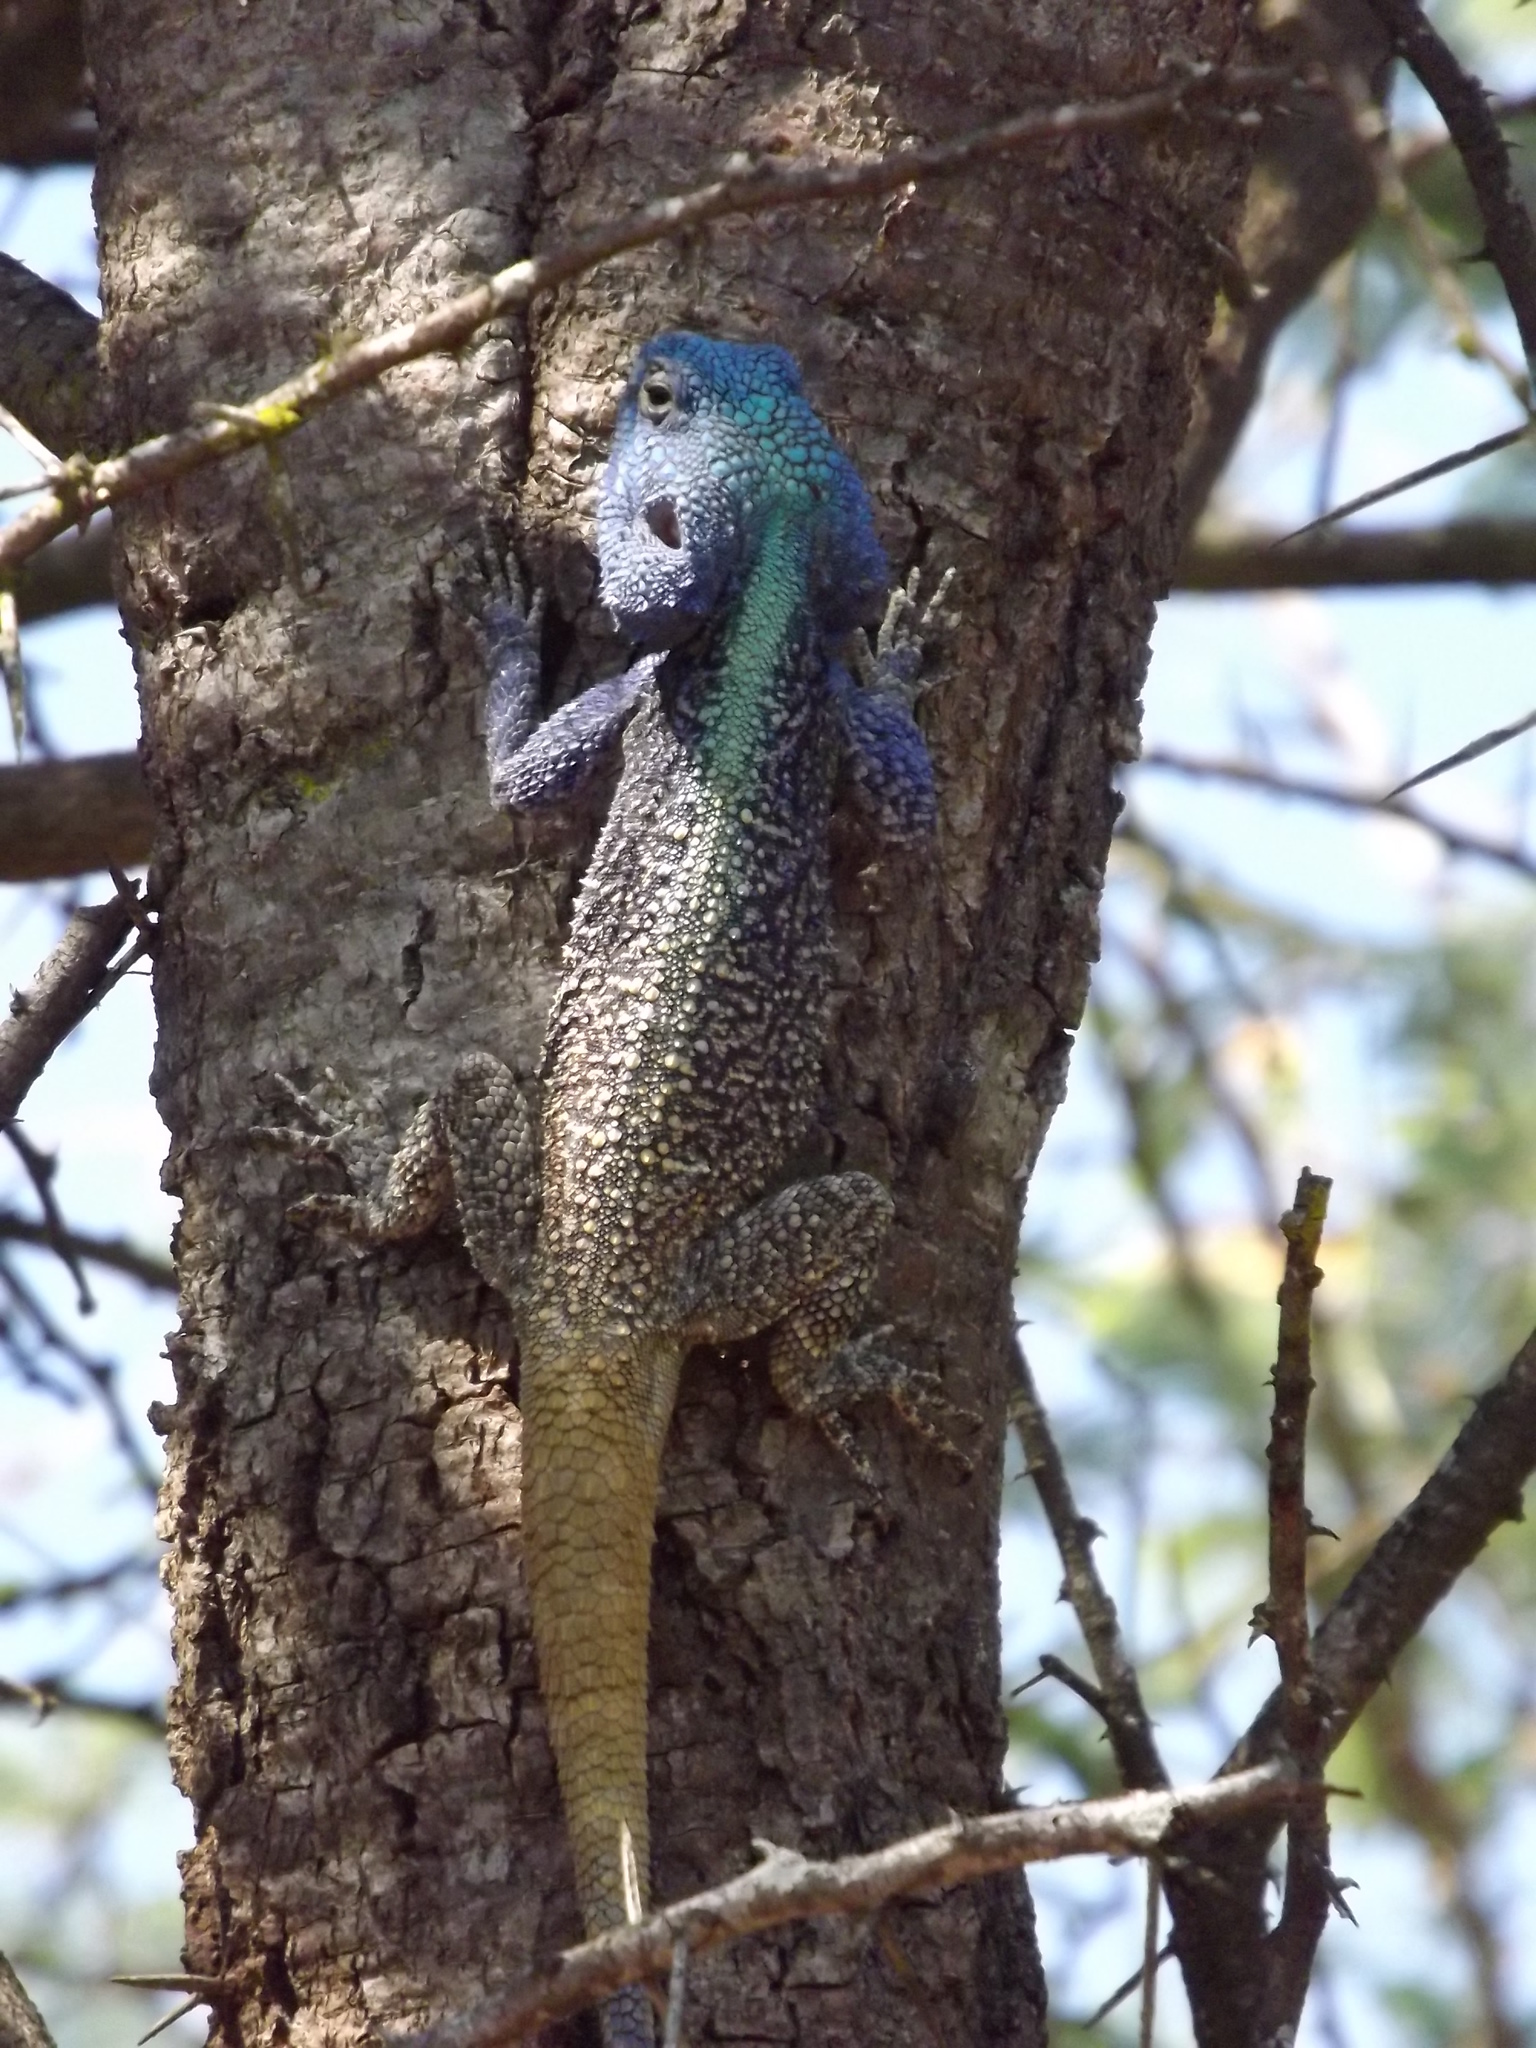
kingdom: Animalia
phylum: Chordata
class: Squamata
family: Agamidae
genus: Acanthocercus
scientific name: Acanthocercus atricollis
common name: Southern tree agama
